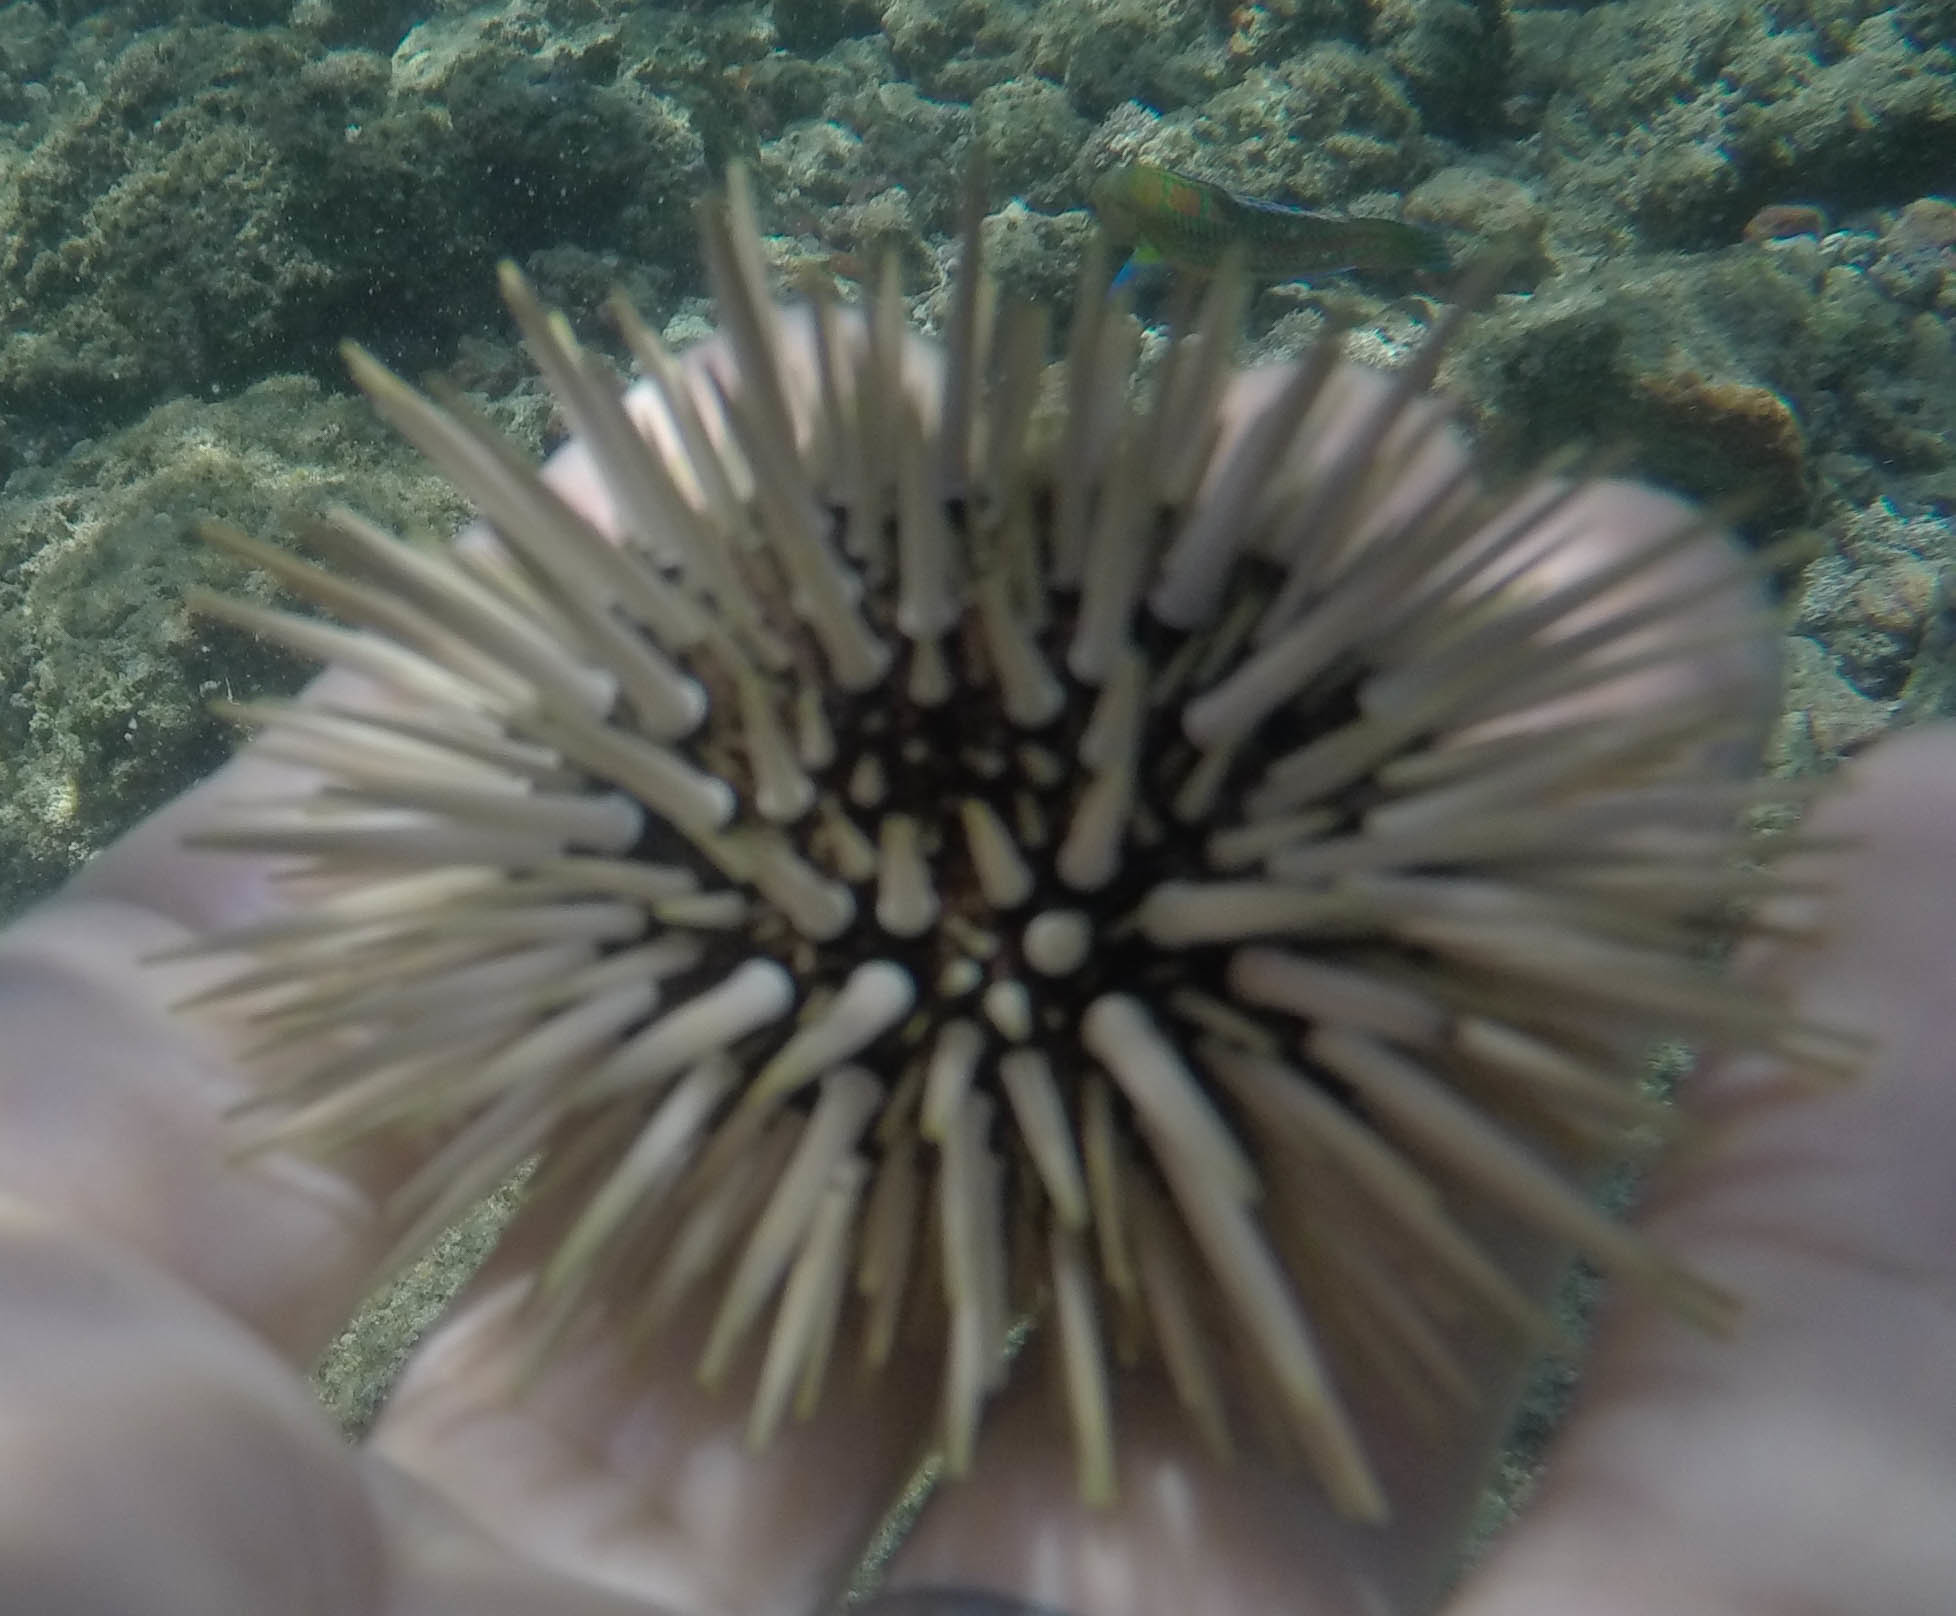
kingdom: Animalia
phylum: Echinodermata
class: Echinoidea
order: Camarodonta
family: Echinometridae
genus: Echinometra
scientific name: Echinometra mathaei
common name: Rock-boring urchin
